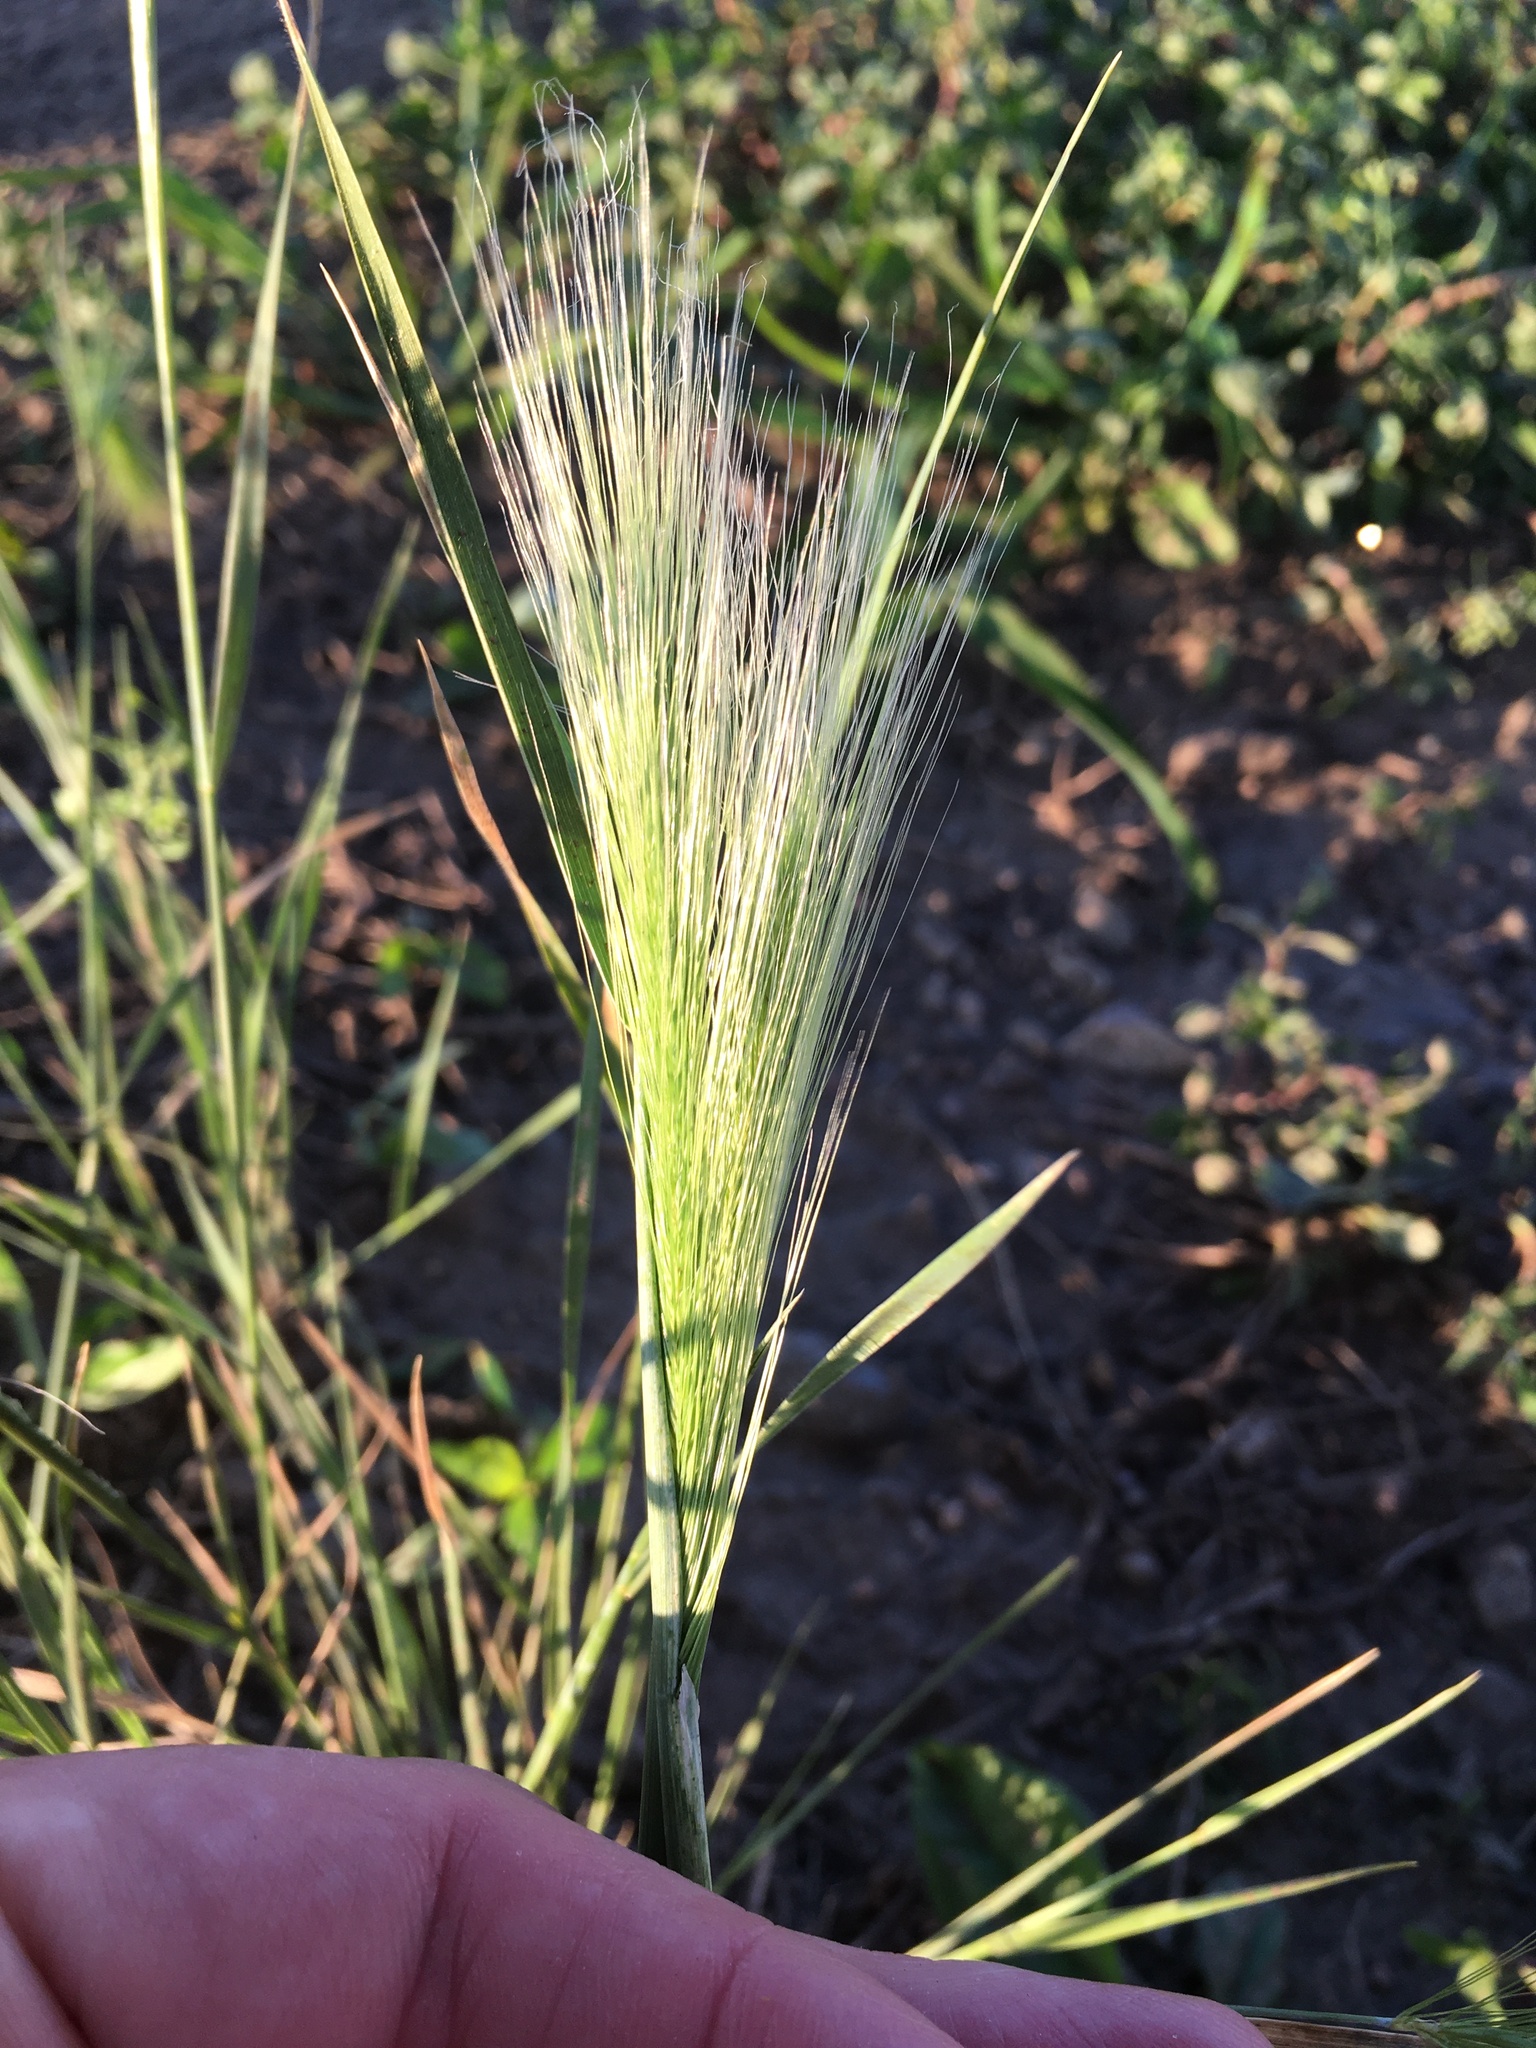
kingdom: Plantae
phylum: Tracheophyta
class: Liliopsida
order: Poales
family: Poaceae
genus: Hordeum
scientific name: Hordeum jubatum
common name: Foxtail barley
